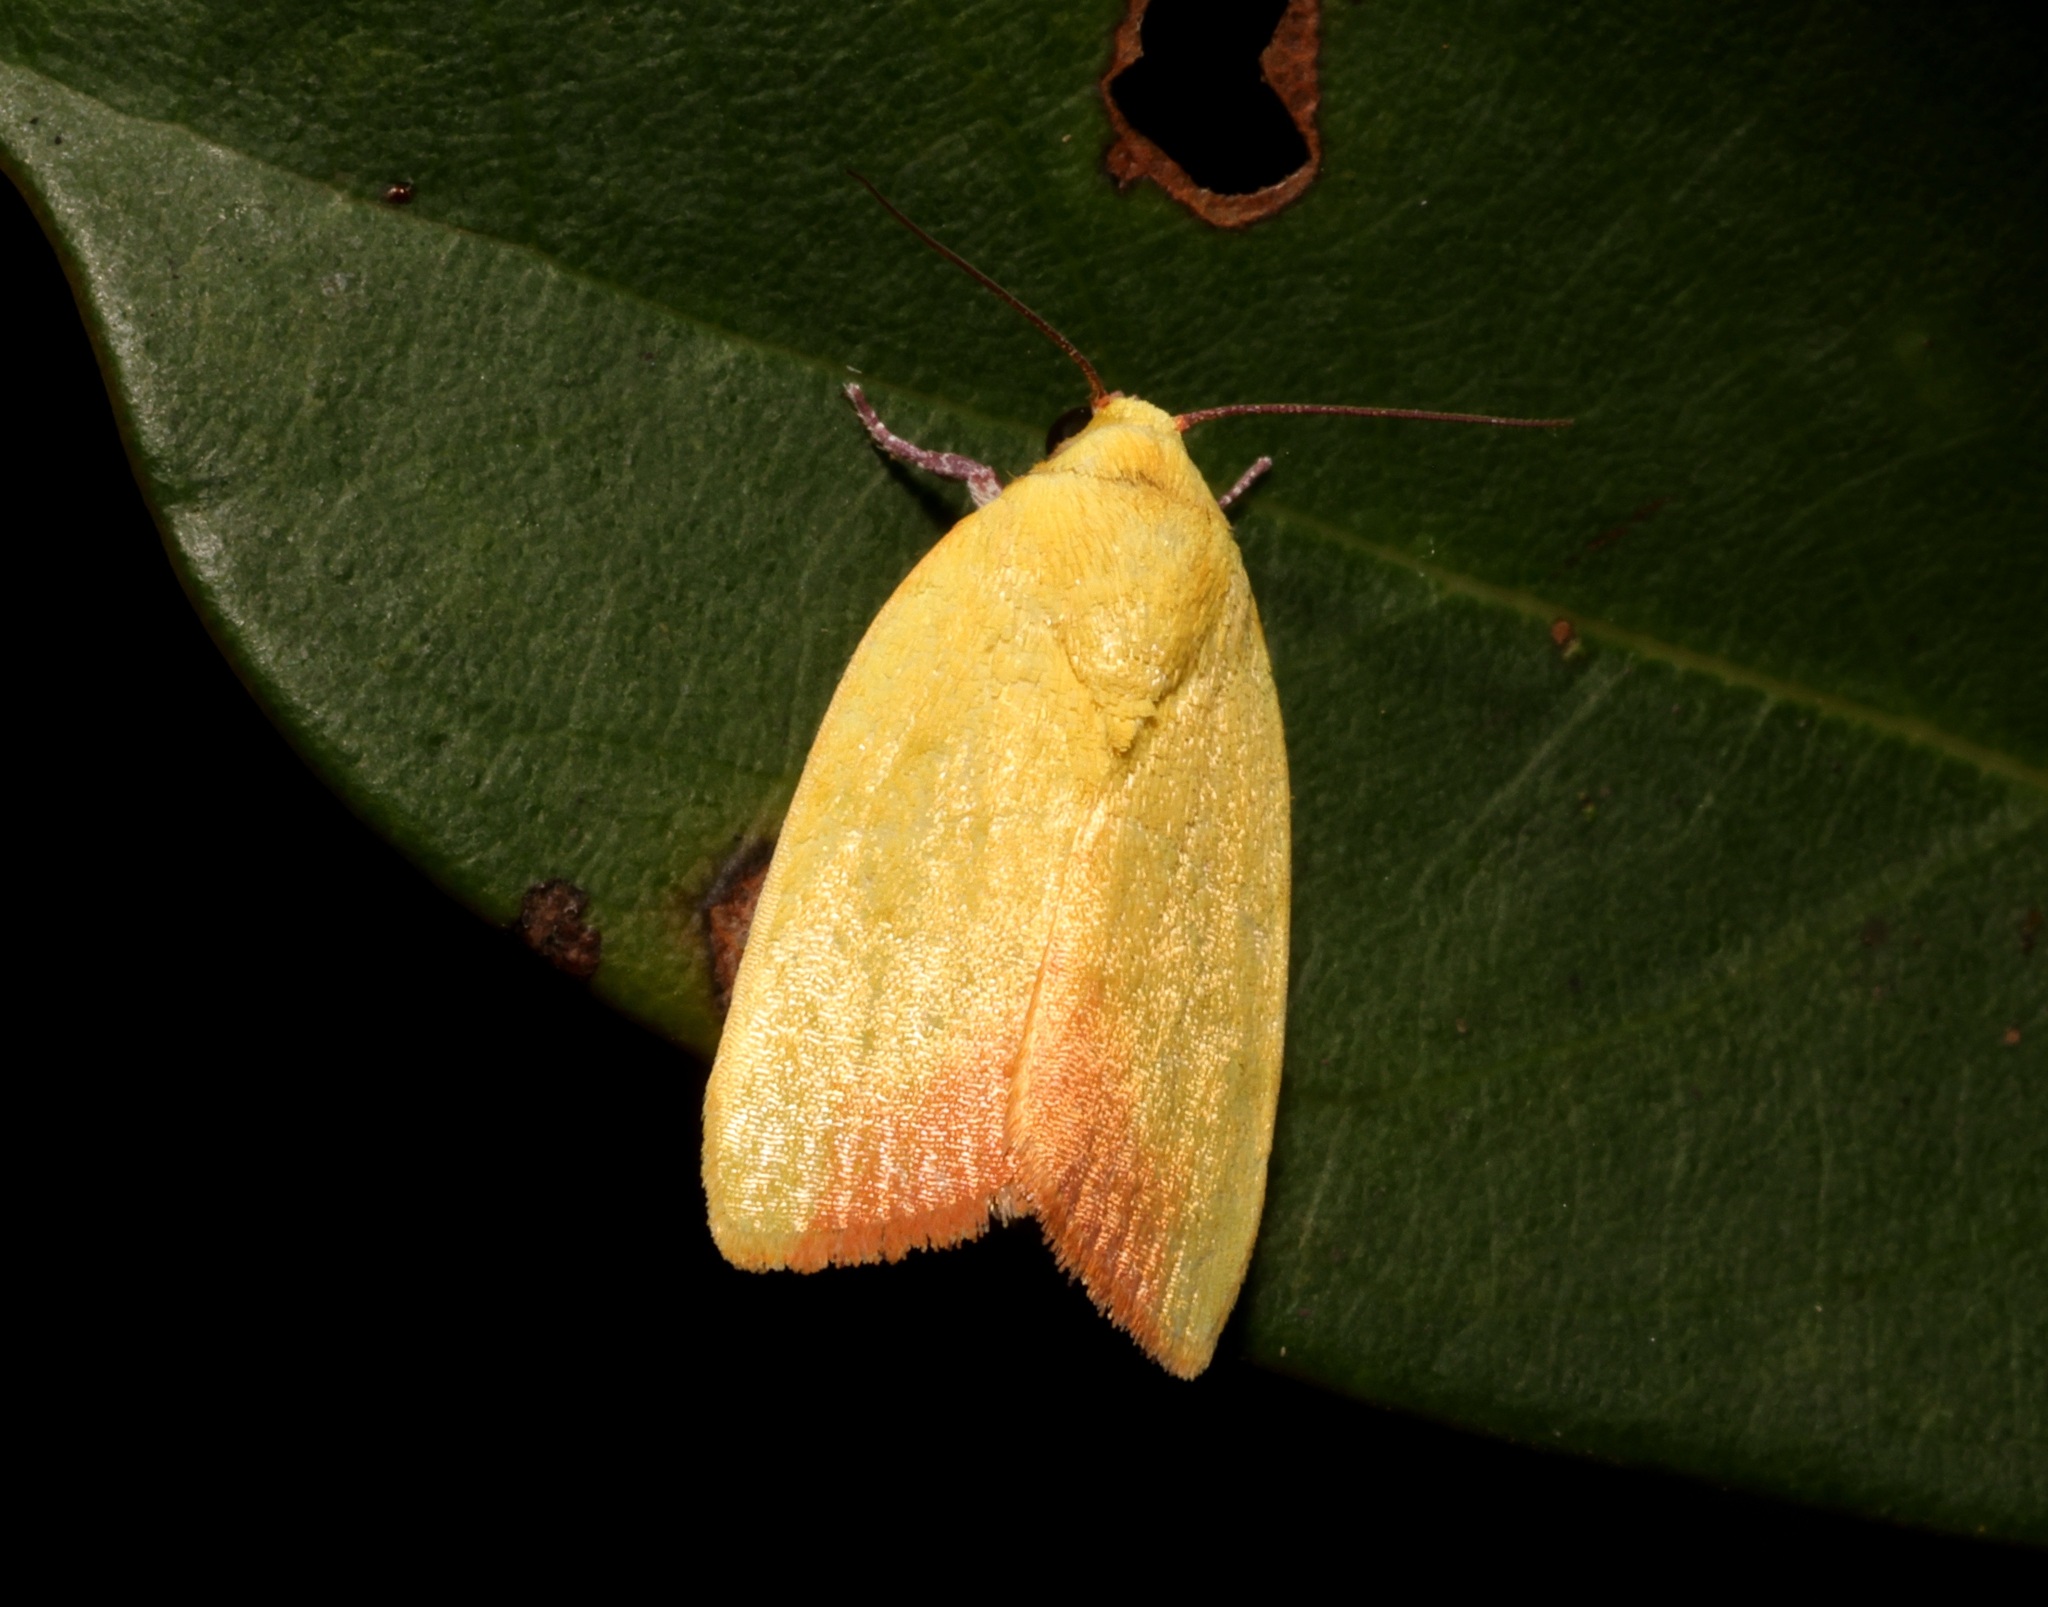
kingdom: Animalia
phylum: Arthropoda
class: Insecta
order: Lepidoptera
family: Nolidae
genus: Earias
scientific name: Earias luteolaria
